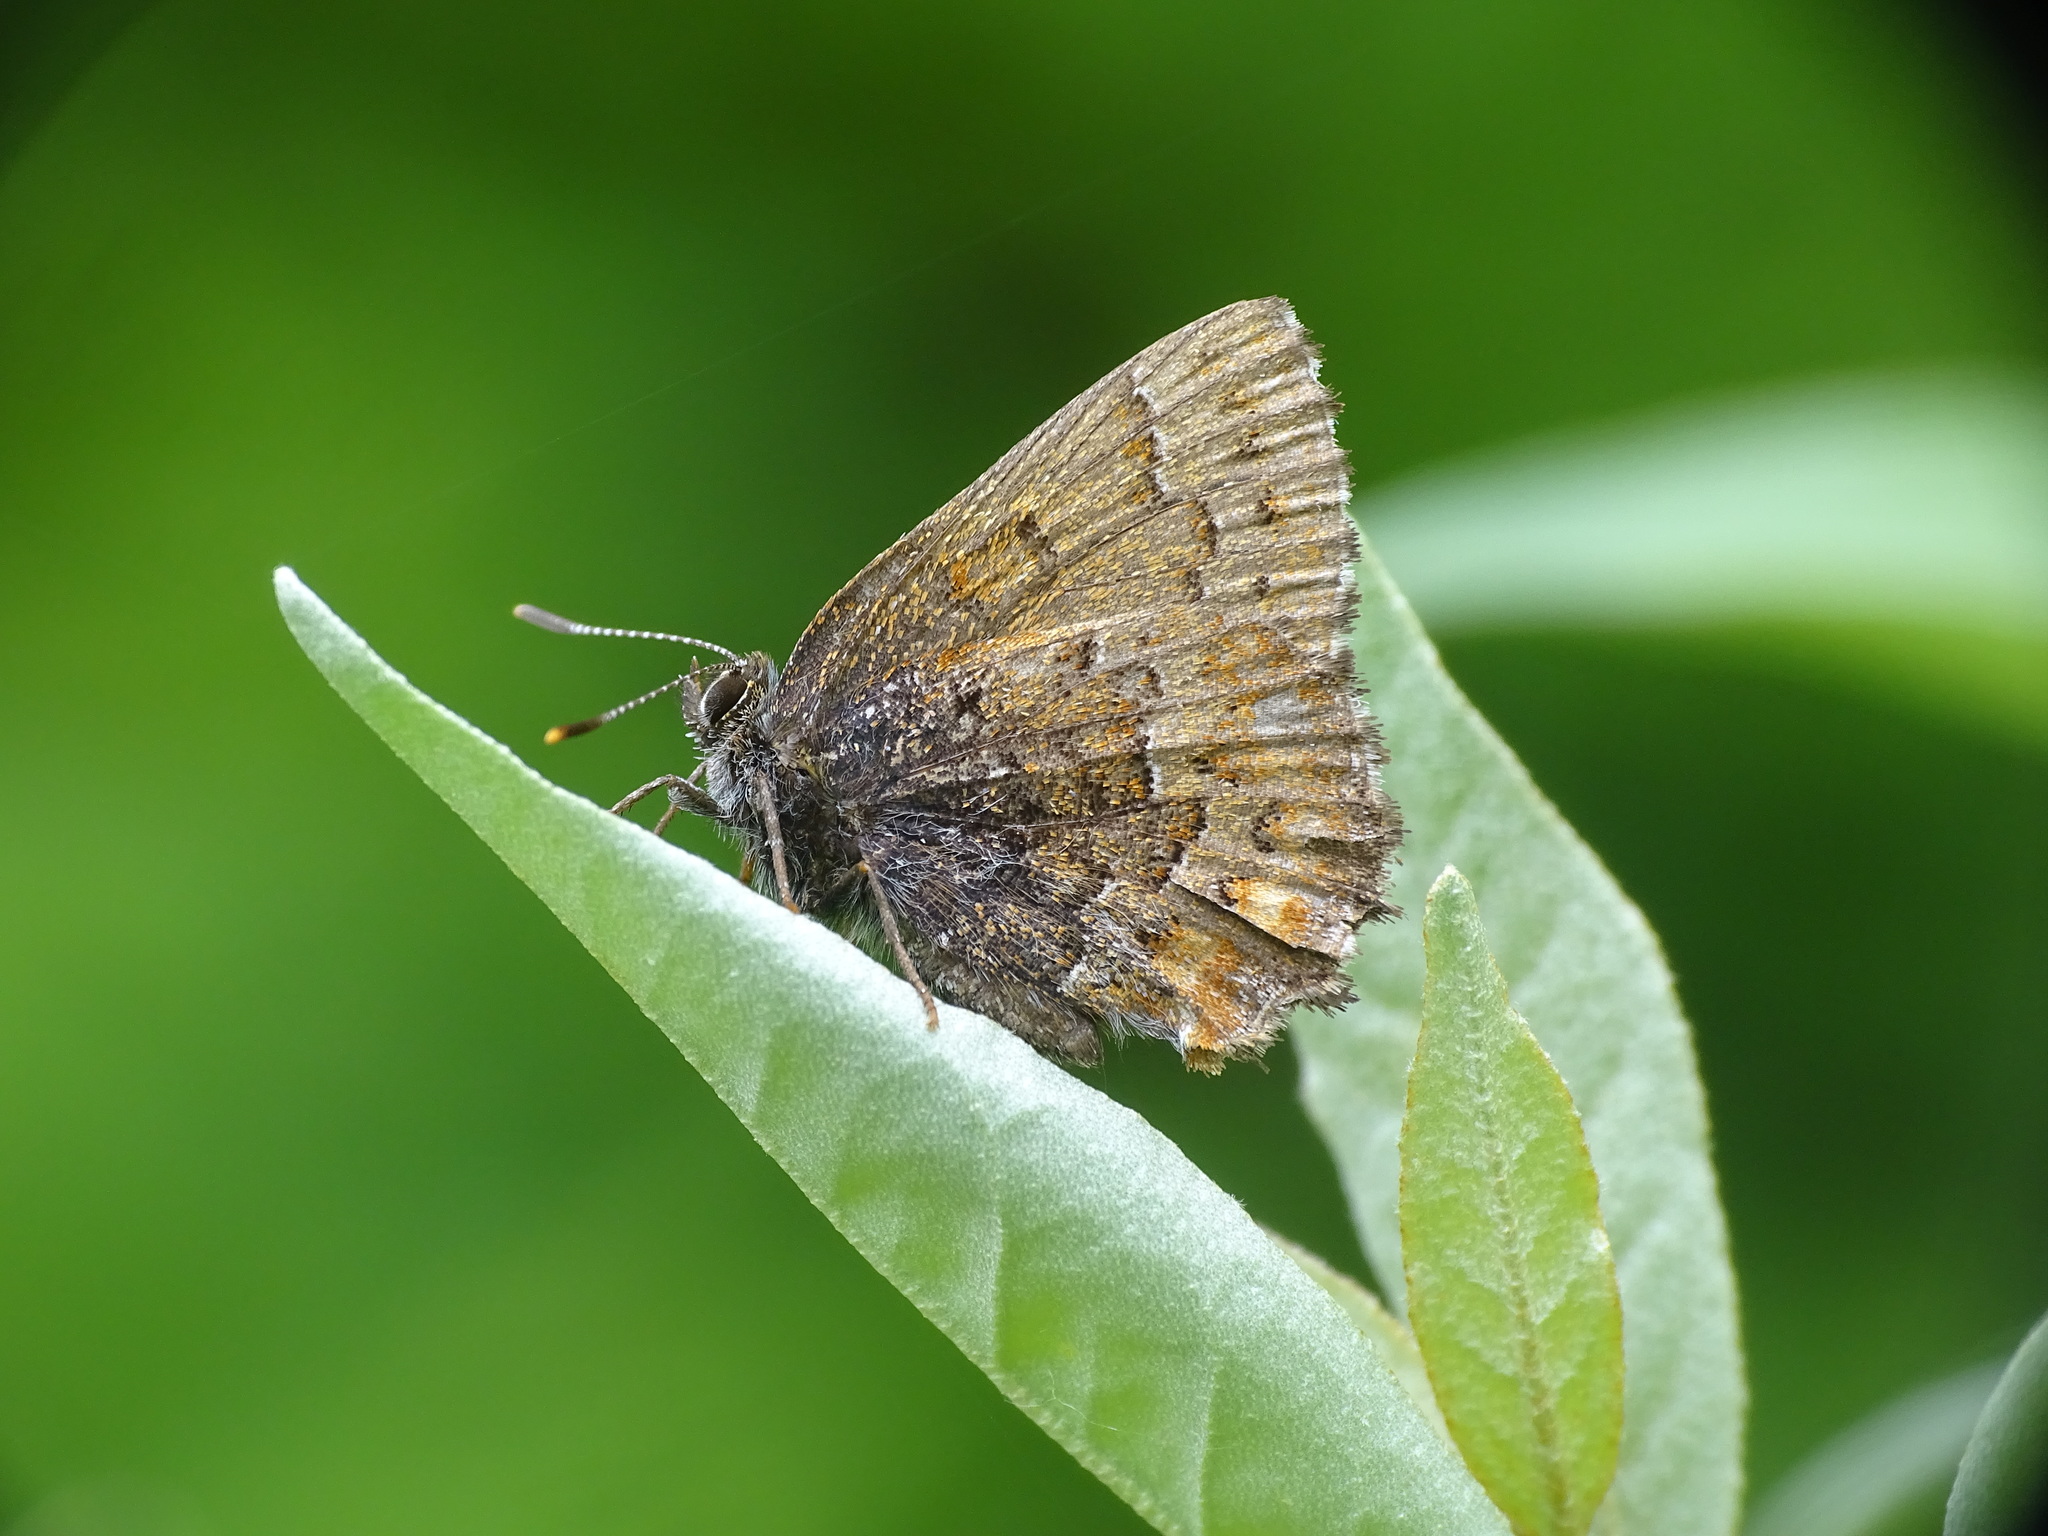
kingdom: Animalia
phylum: Arthropoda
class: Insecta
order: Lepidoptera
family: Lycaenidae
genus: Incisalia
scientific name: Incisalia niphon
